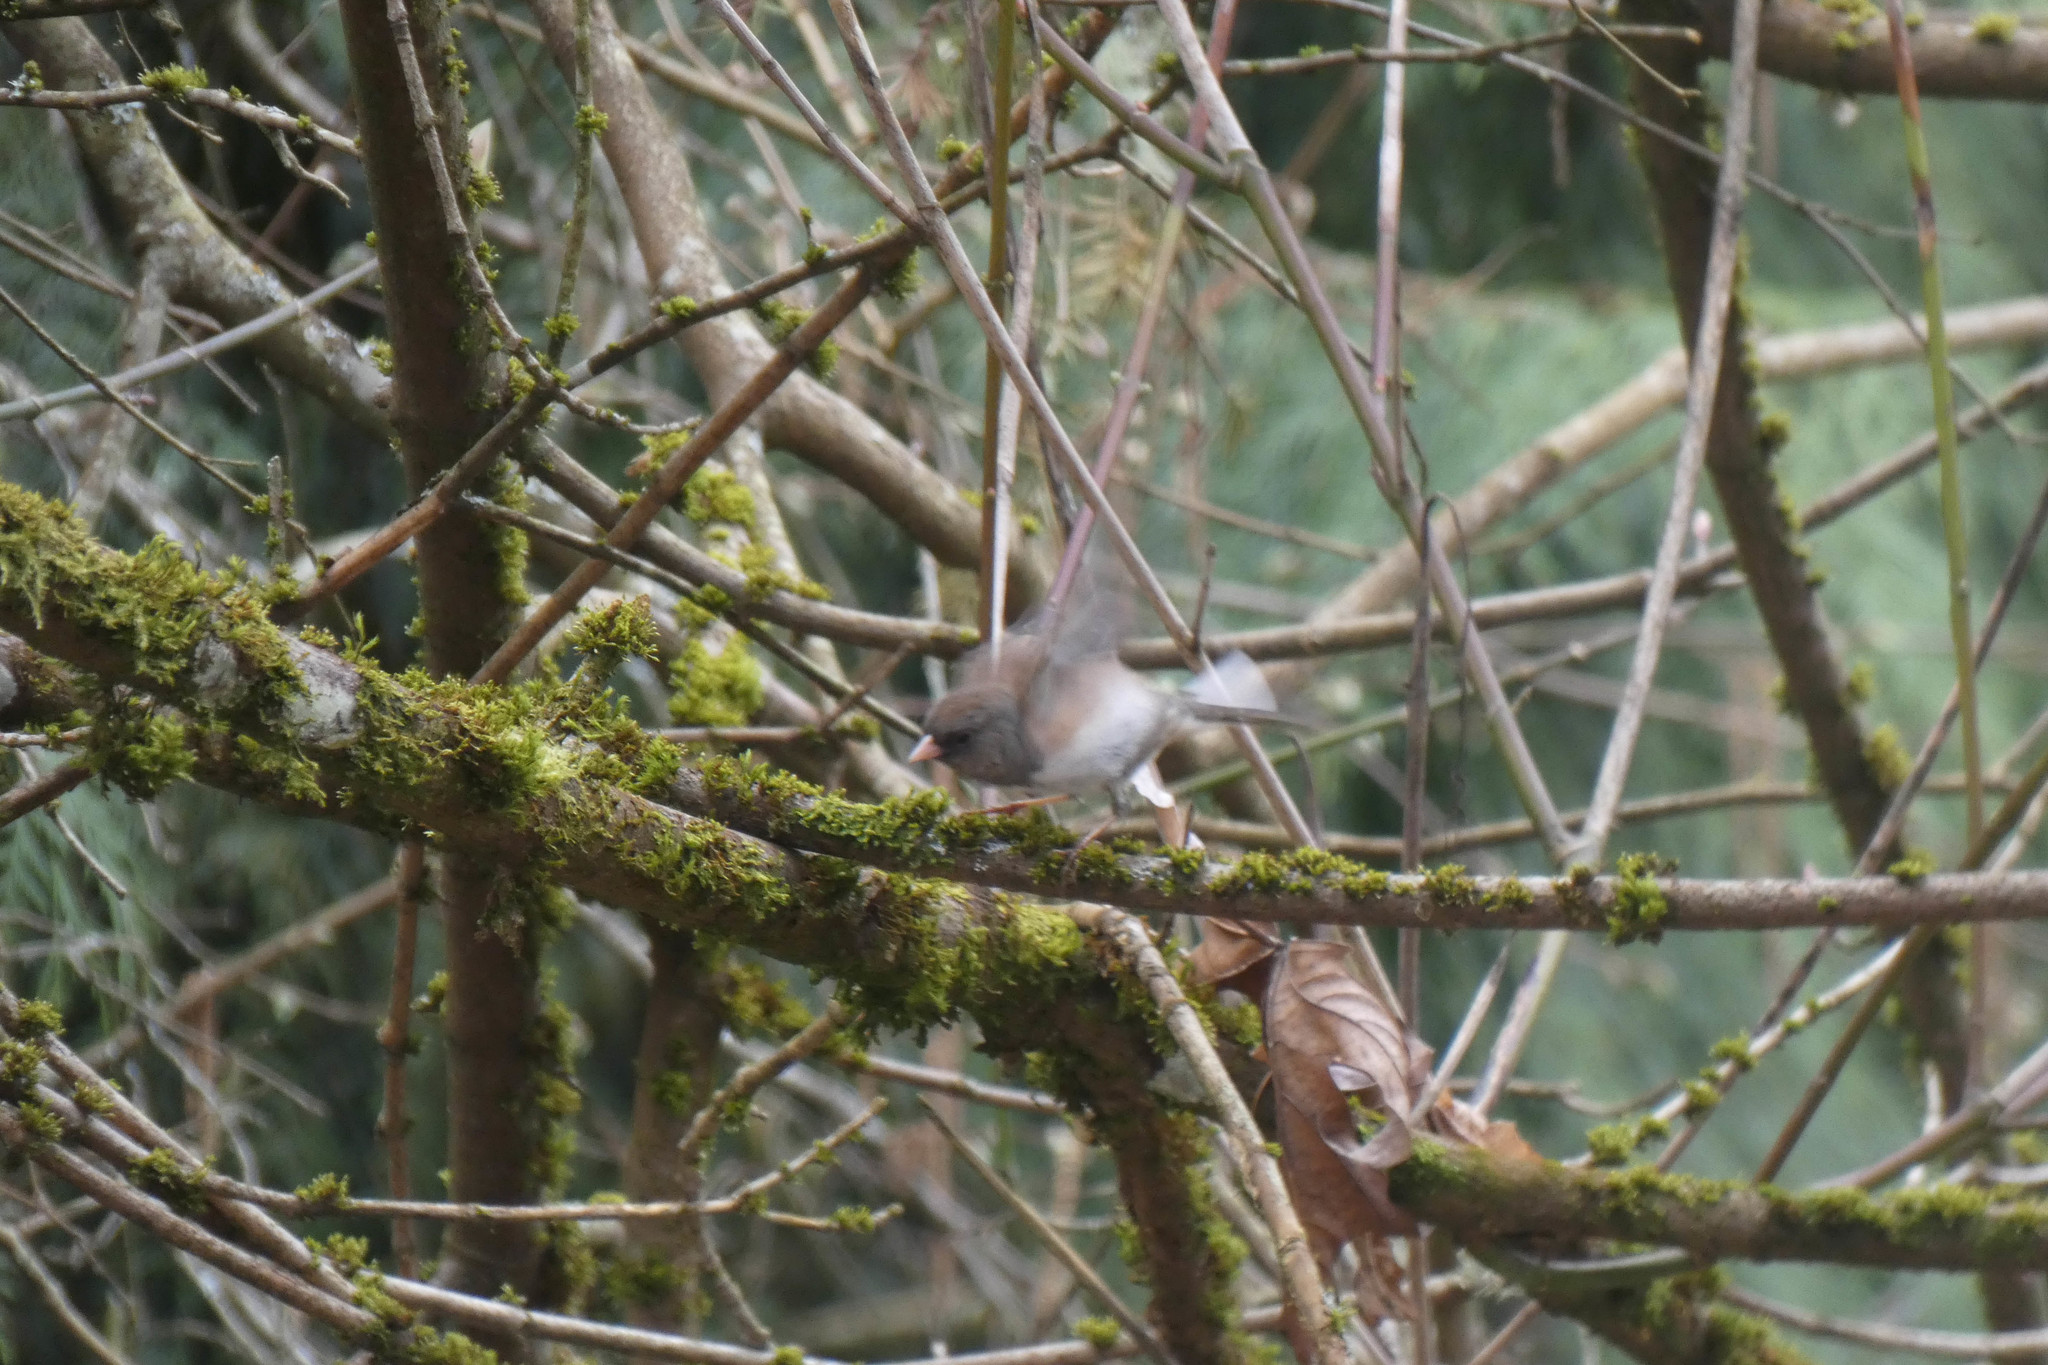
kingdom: Animalia
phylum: Chordata
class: Aves
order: Passeriformes
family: Passerellidae
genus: Junco
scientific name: Junco hyemalis
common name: Dark-eyed junco
